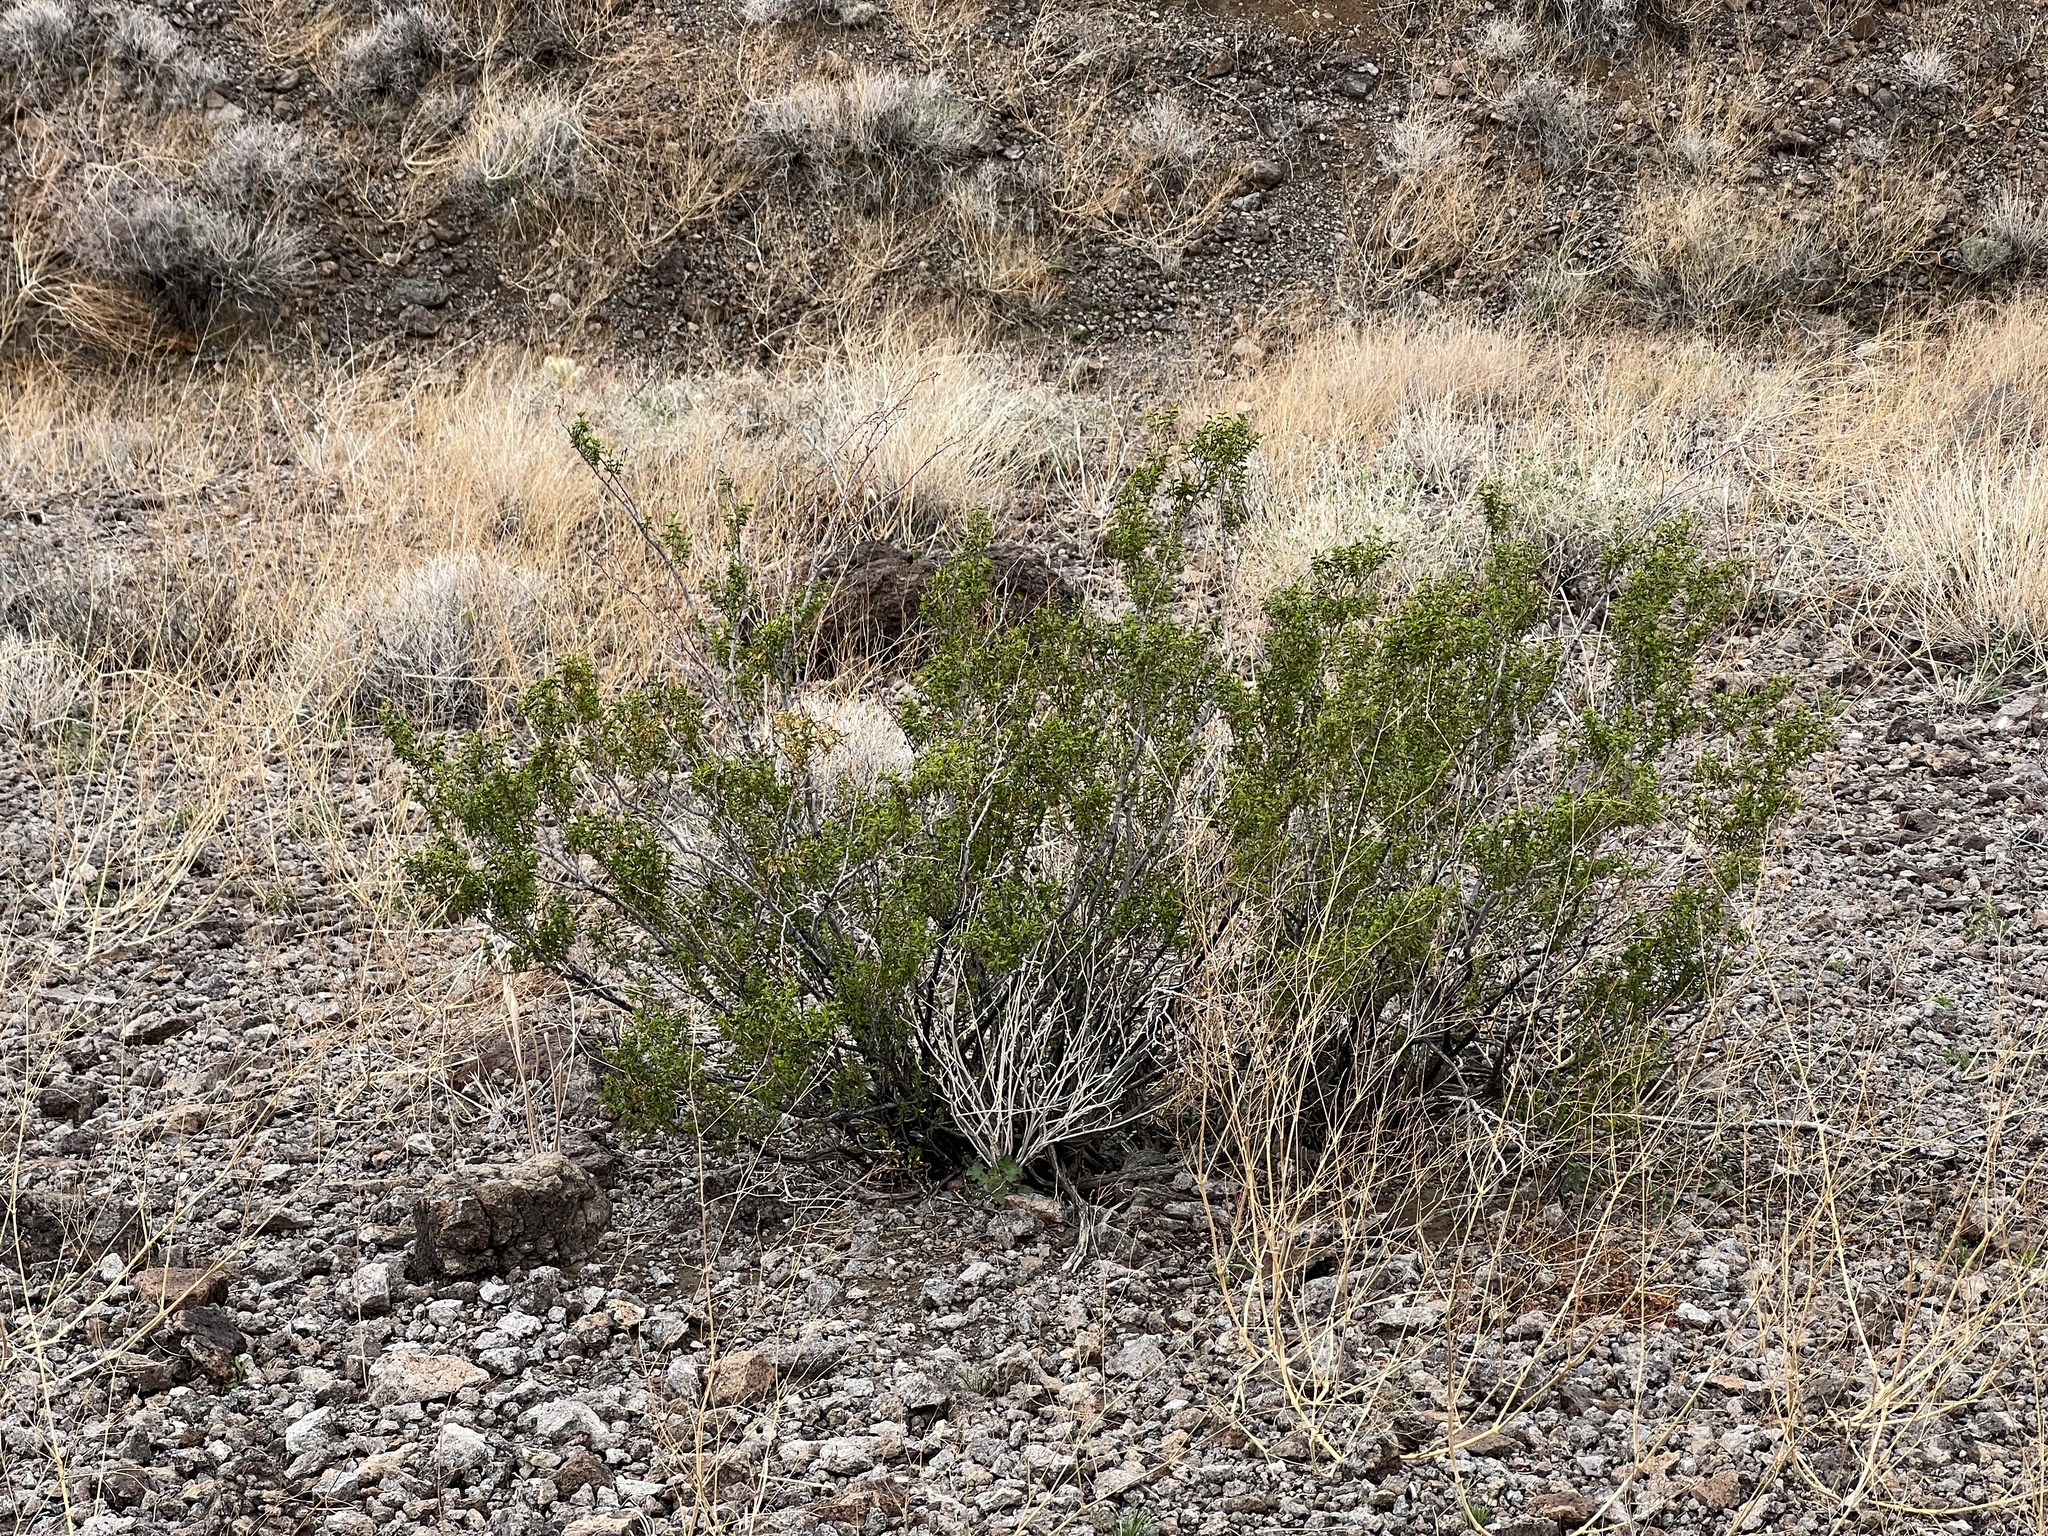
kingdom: Plantae
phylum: Tracheophyta
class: Magnoliopsida
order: Zygophyllales
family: Zygophyllaceae
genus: Larrea
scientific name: Larrea tridentata
